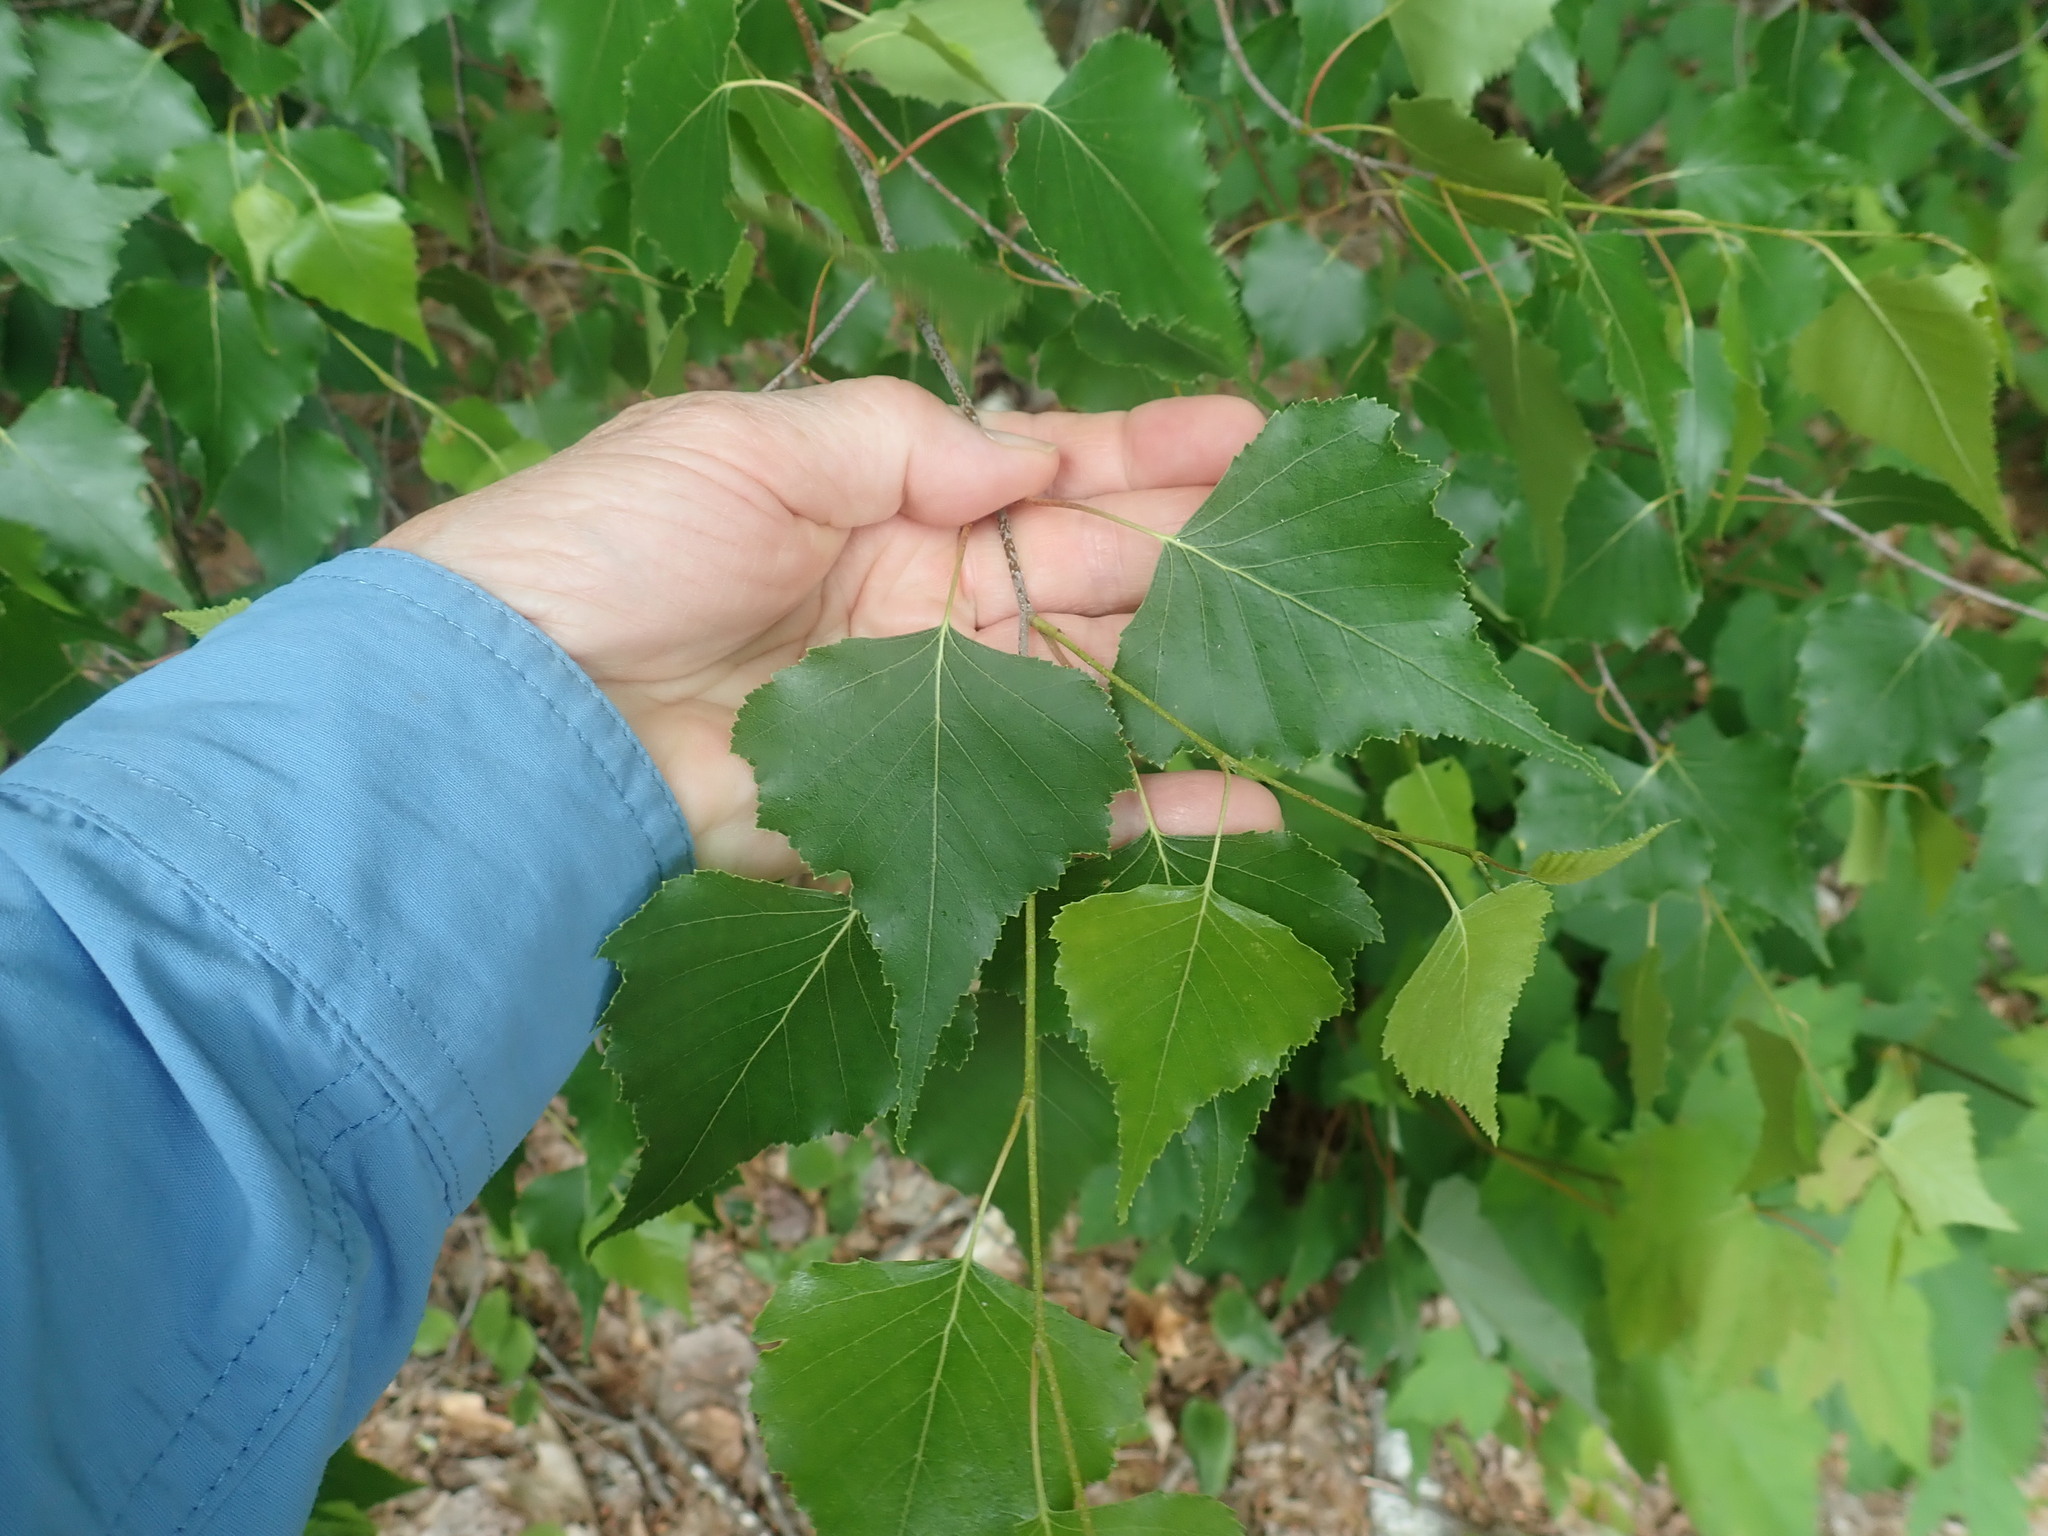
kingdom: Plantae
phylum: Tracheophyta
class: Magnoliopsida
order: Fagales
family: Betulaceae
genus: Betula
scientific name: Betula populifolia
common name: Fire birch
